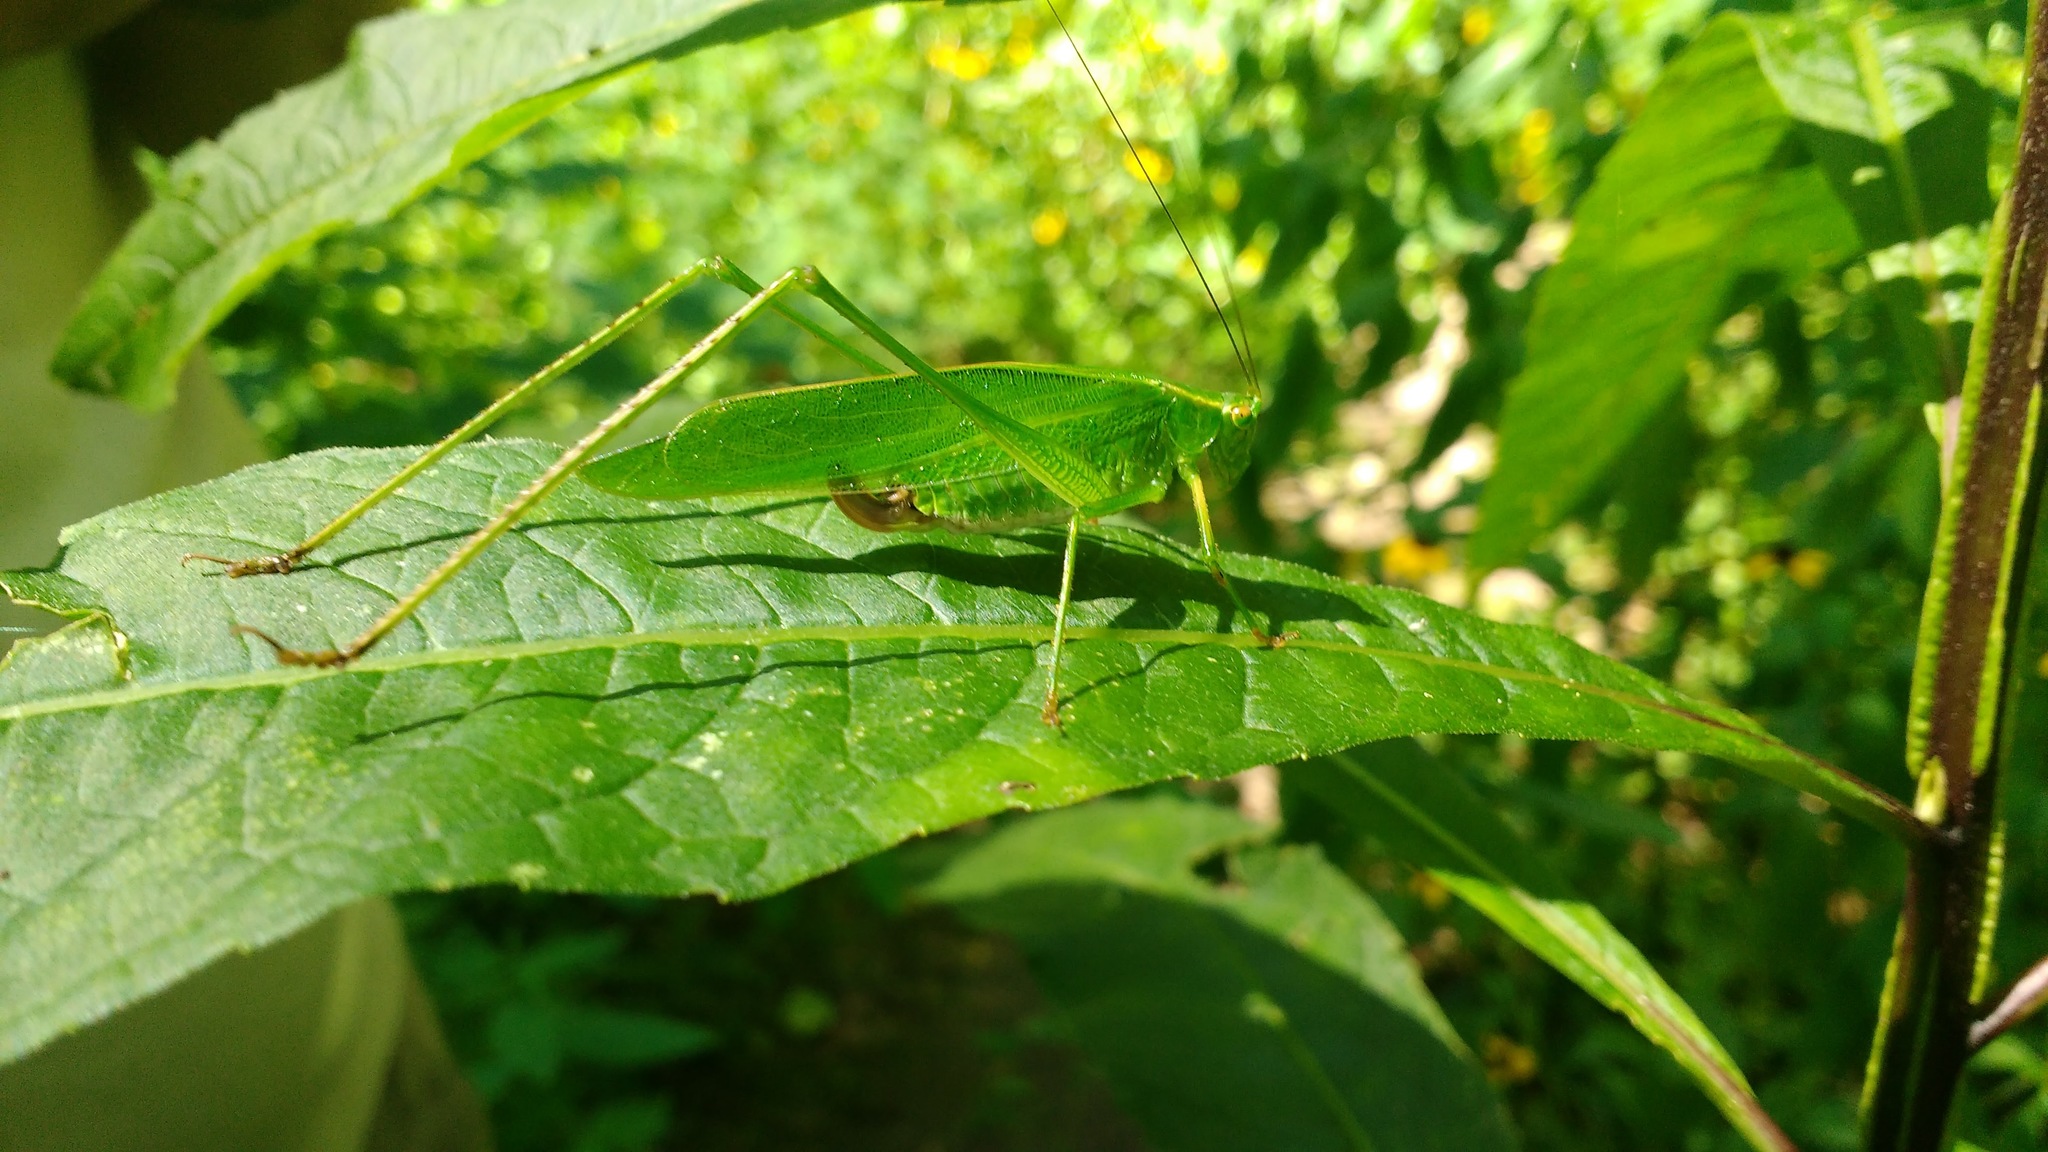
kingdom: Animalia
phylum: Arthropoda
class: Insecta
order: Orthoptera
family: Tettigoniidae
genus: Scudderia
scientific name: Scudderia furcata
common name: Fork-tailed bush katydid
